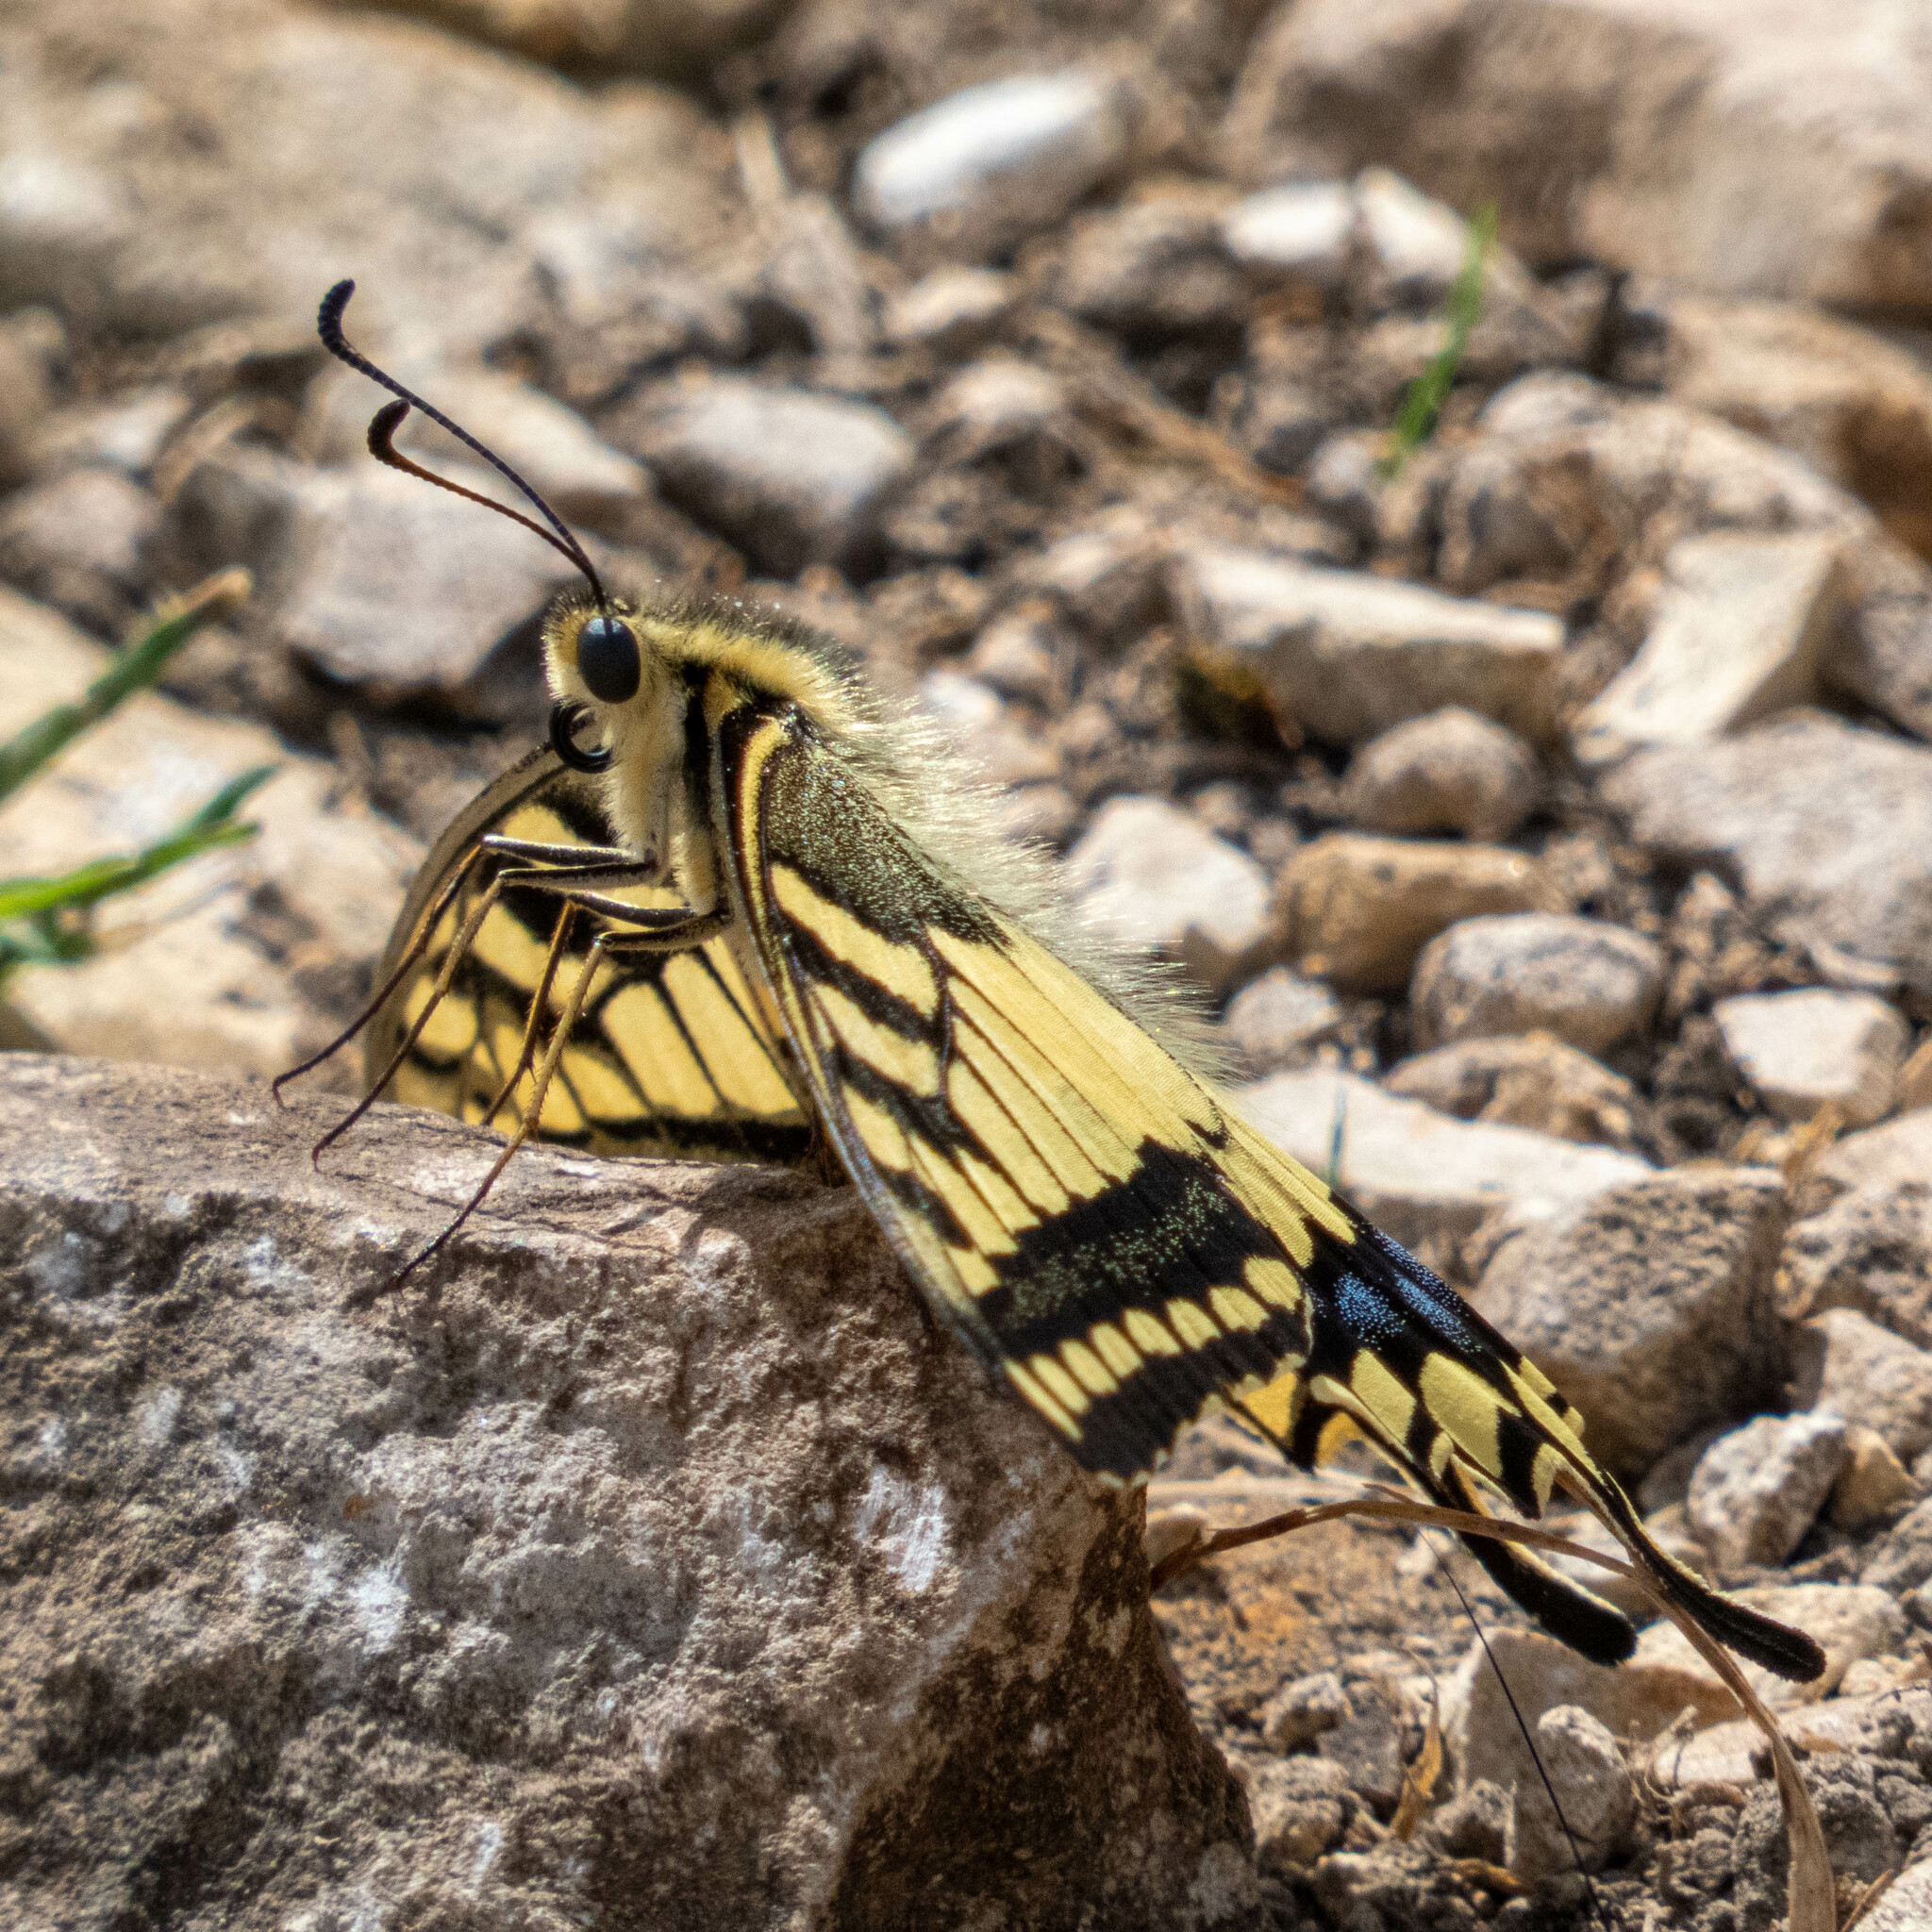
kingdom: Animalia
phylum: Arthropoda
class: Insecta
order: Lepidoptera
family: Papilionidae
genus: Papilio
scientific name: Papilio machaon
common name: Swallowtail
